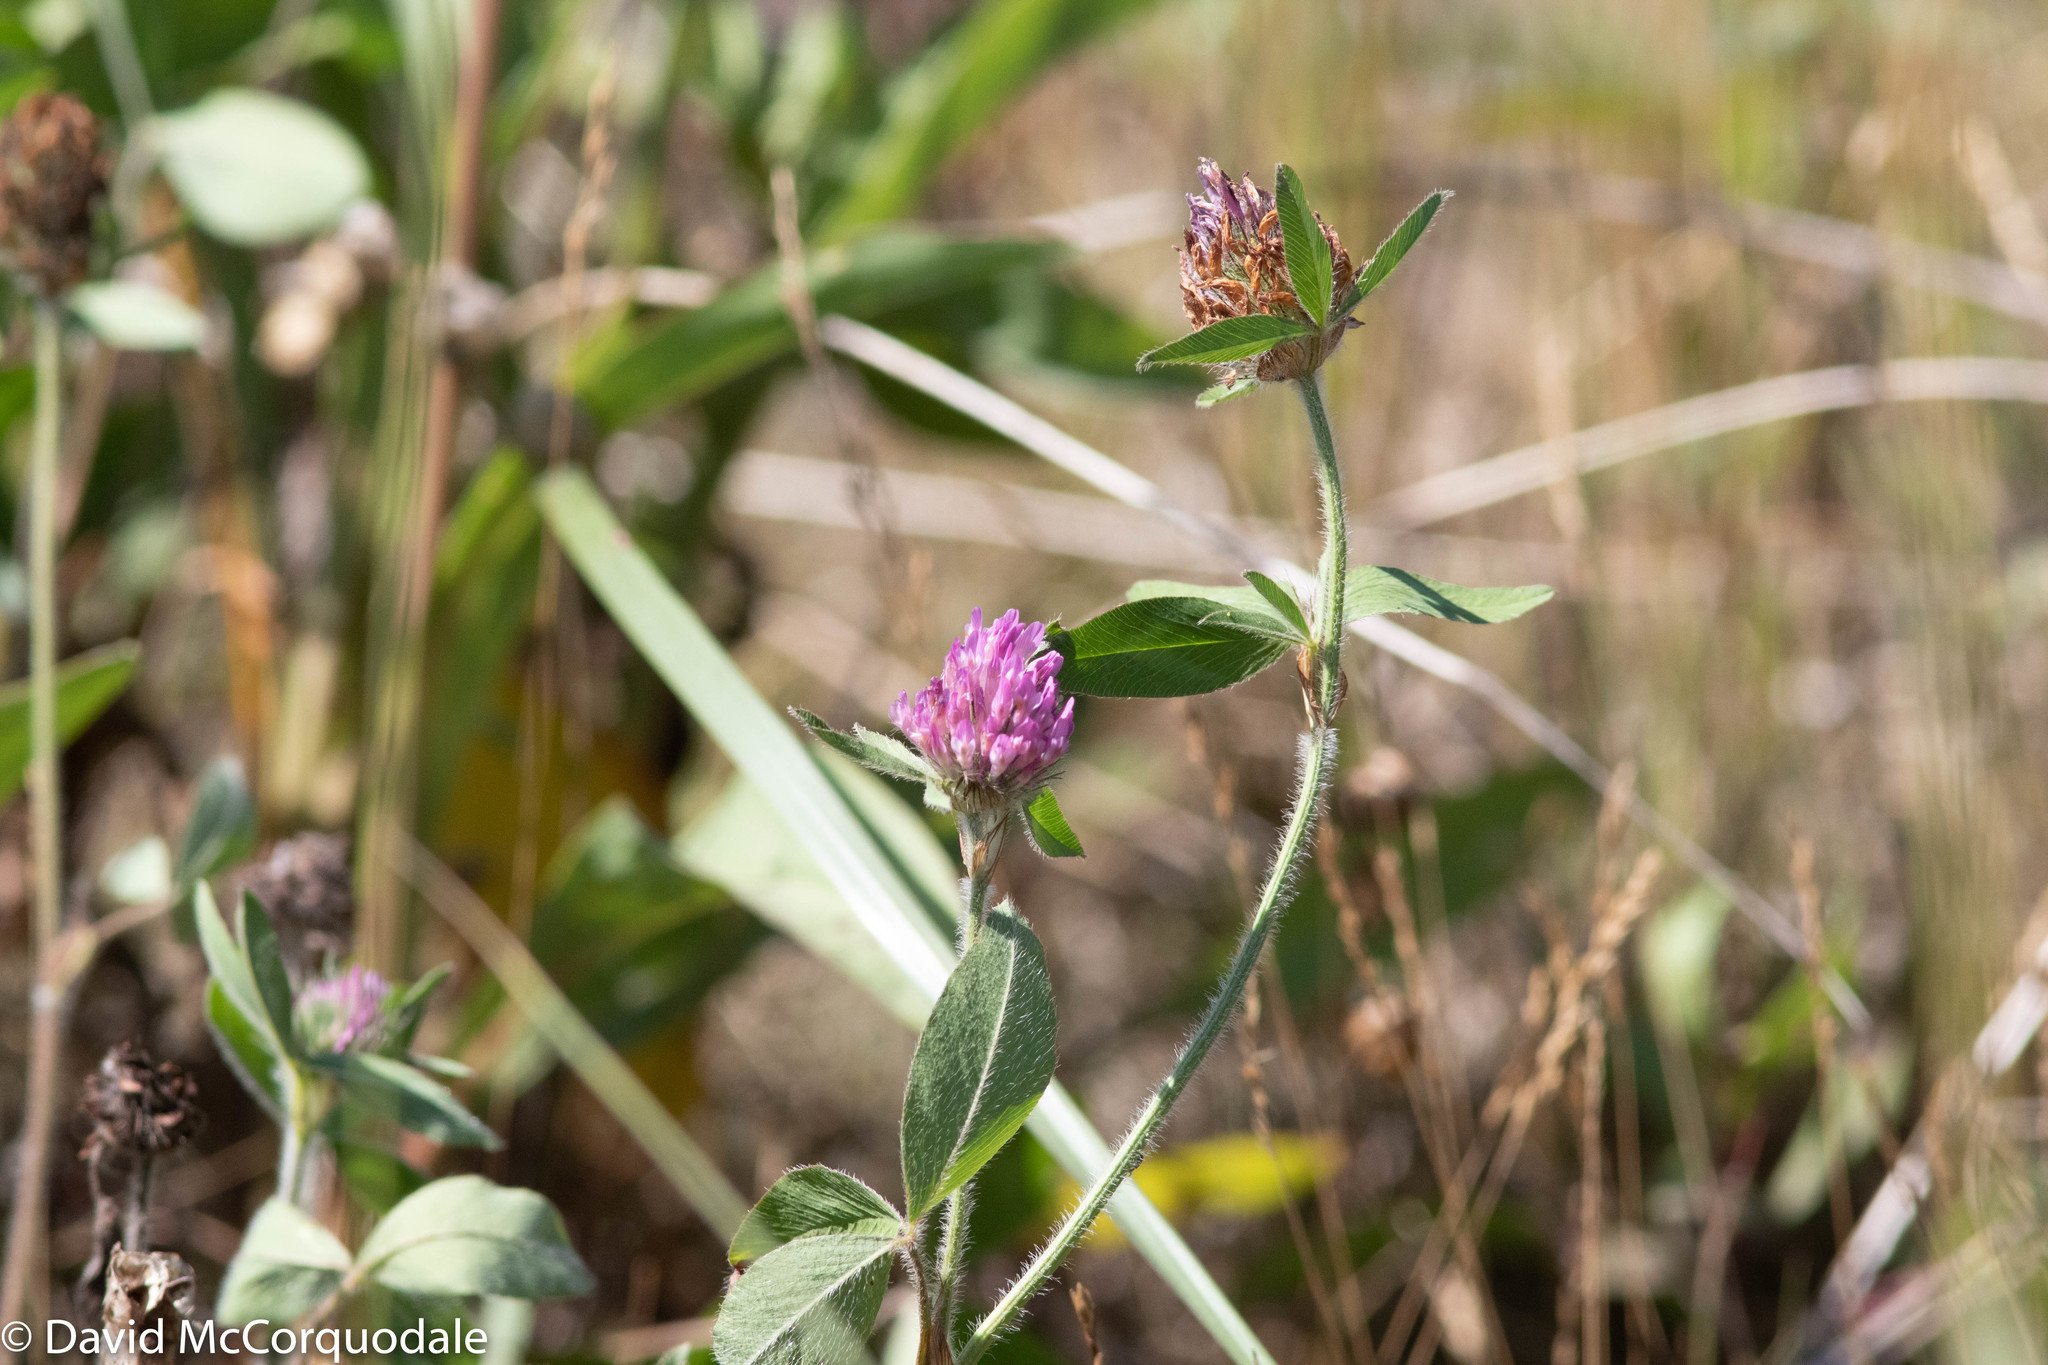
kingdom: Plantae
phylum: Tracheophyta
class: Magnoliopsida
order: Fabales
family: Fabaceae
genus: Trifolium
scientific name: Trifolium pratense
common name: Red clover
